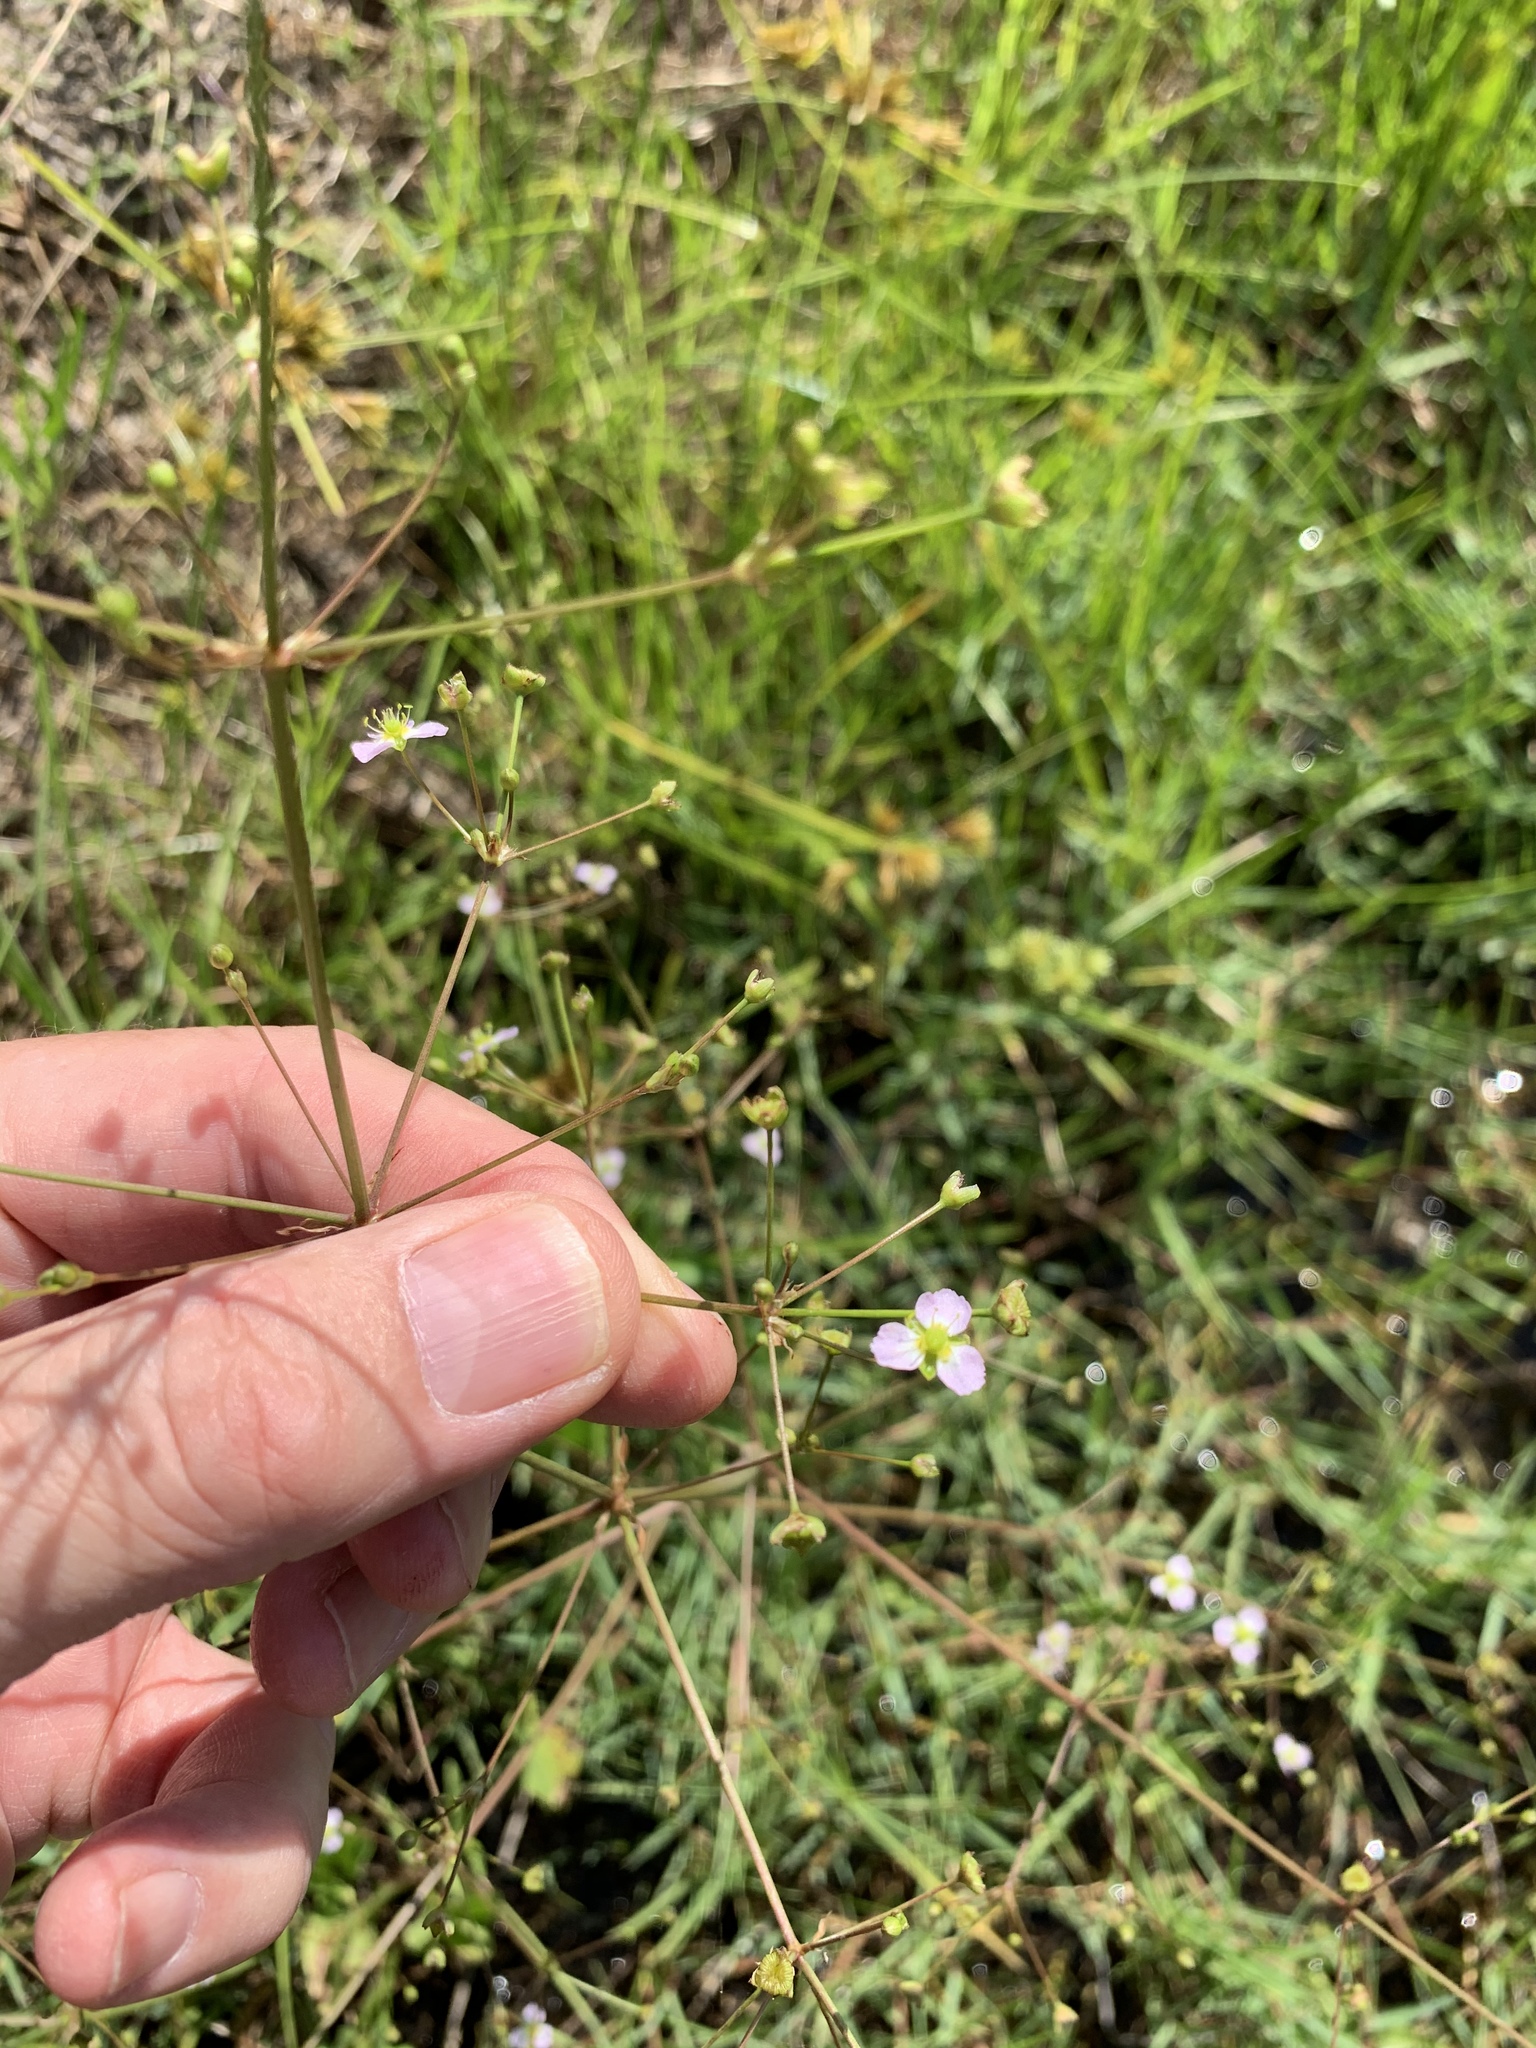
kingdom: Plantae
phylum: Tracheophyta
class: Liliopsida
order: Alismatales
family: Alismataceae
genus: Alisma
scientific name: Alisma plantago-aquatica
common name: Water-plantain
